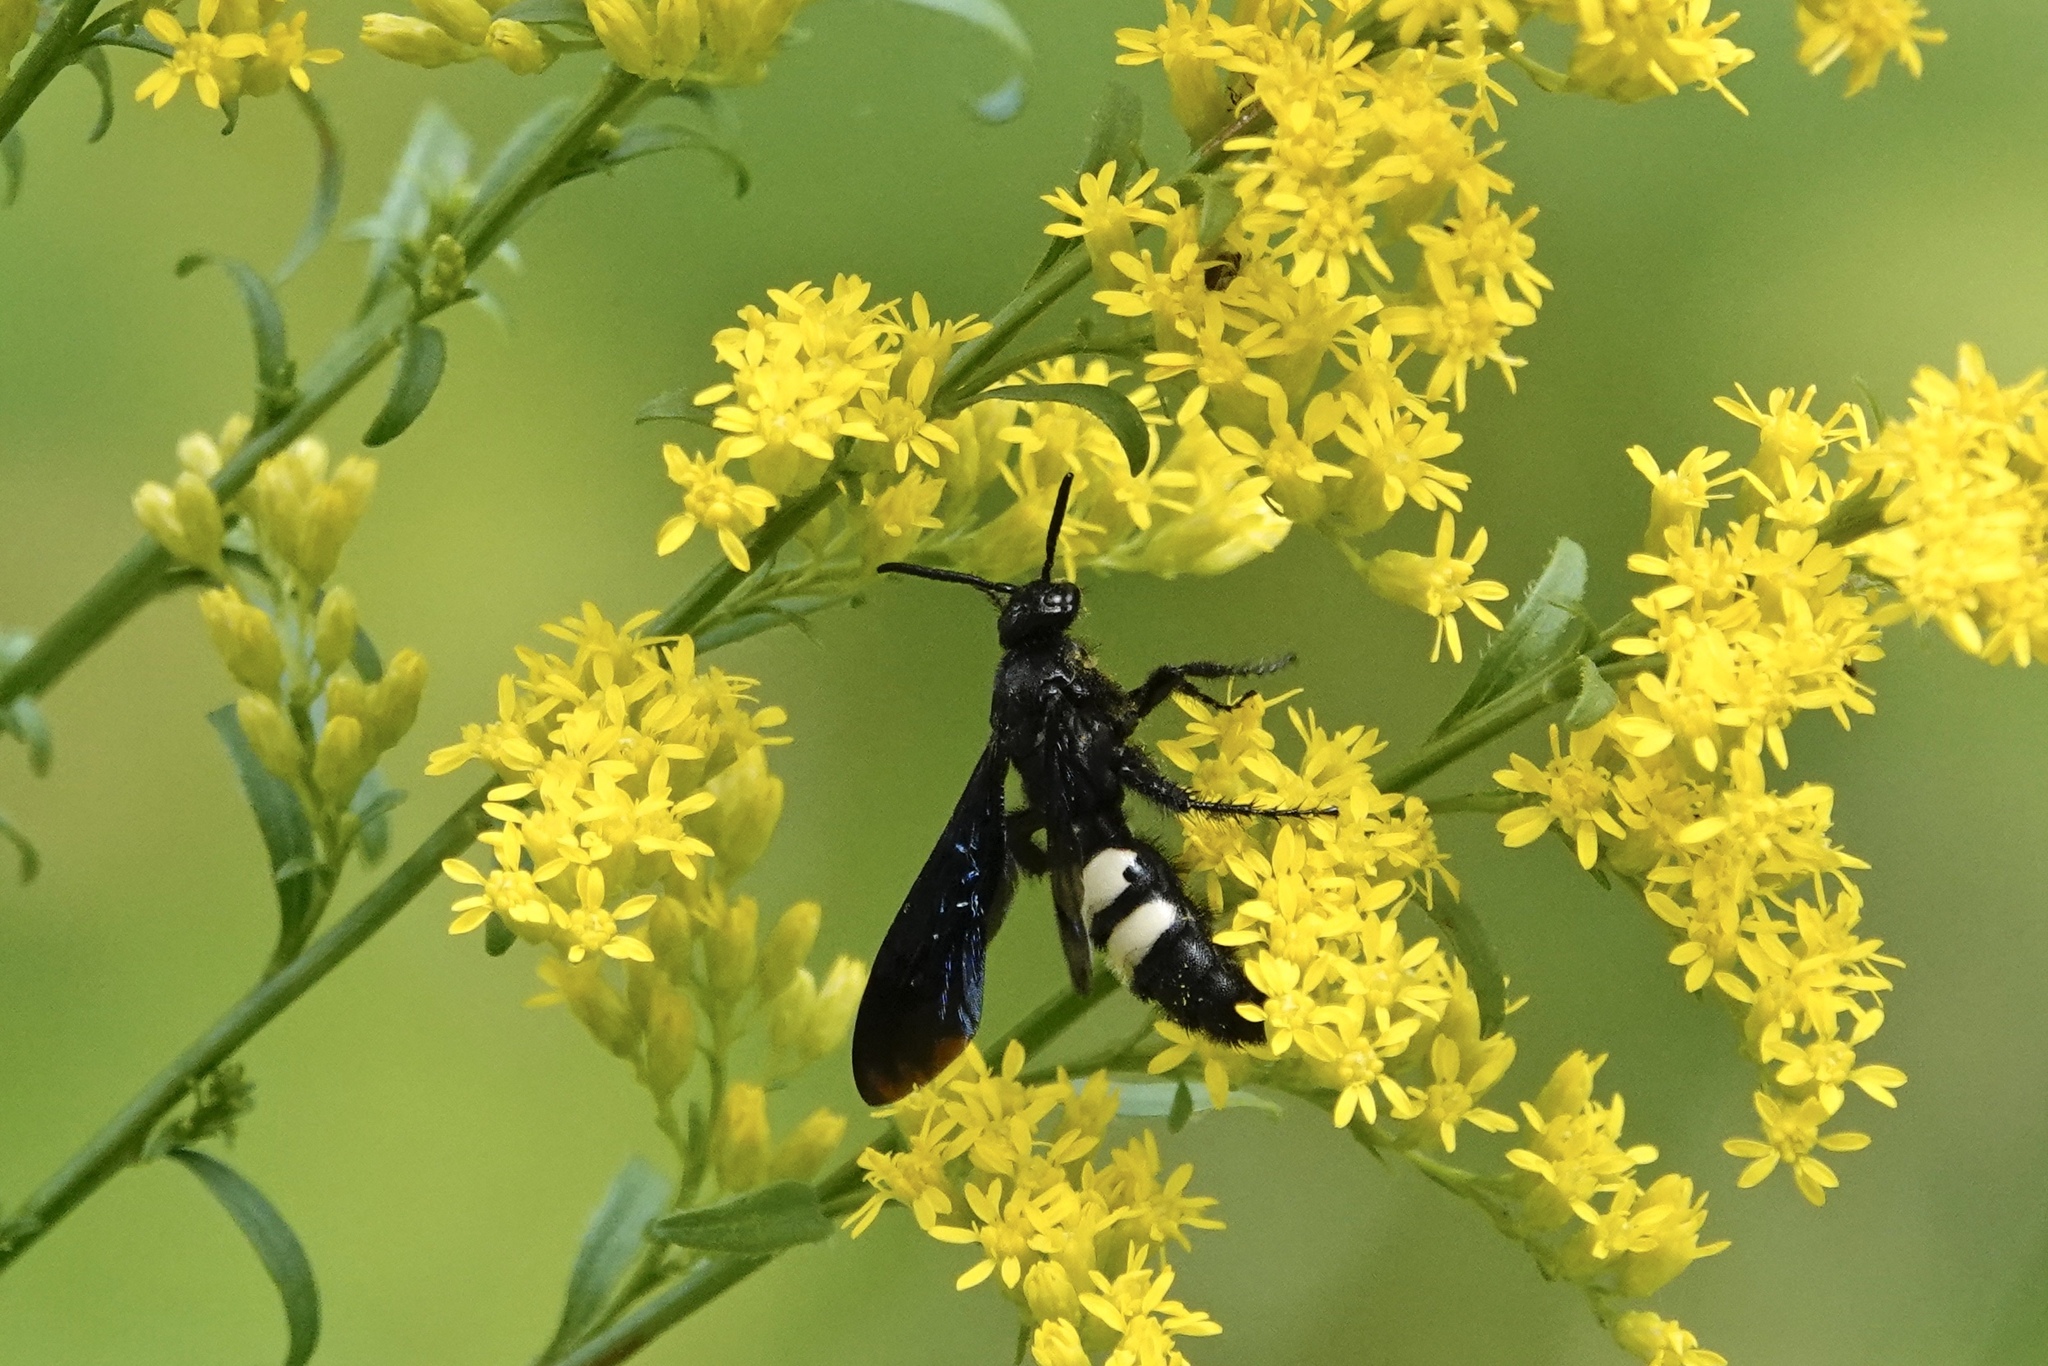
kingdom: Animalia
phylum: Arthropoda
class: Insecta
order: Hymenoptera
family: Scoliidae
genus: Scolia
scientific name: Scolia bicincta
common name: Double-banded scoliid wasp
